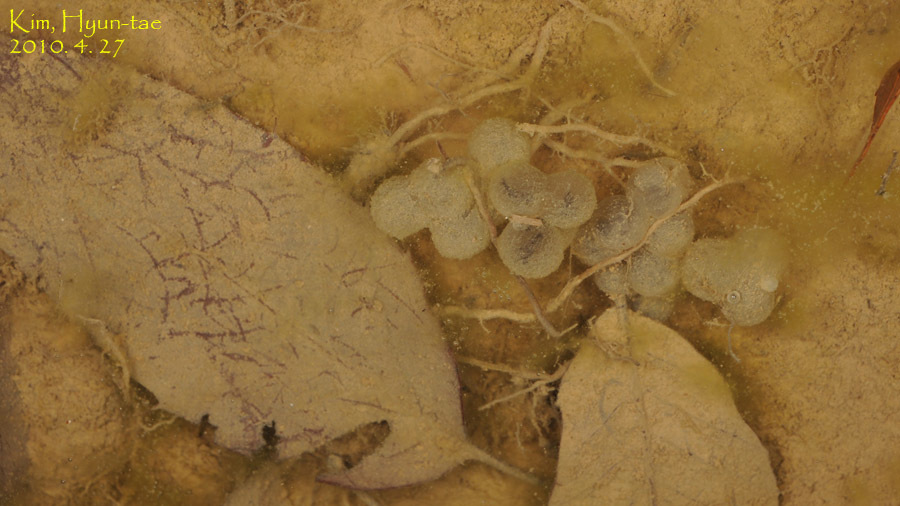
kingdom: Animalia
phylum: Chordata
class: Amphibia
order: Anura
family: Bombinatoridae
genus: Bombina
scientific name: Bombina orientalis
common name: Oriental firebelly toad
